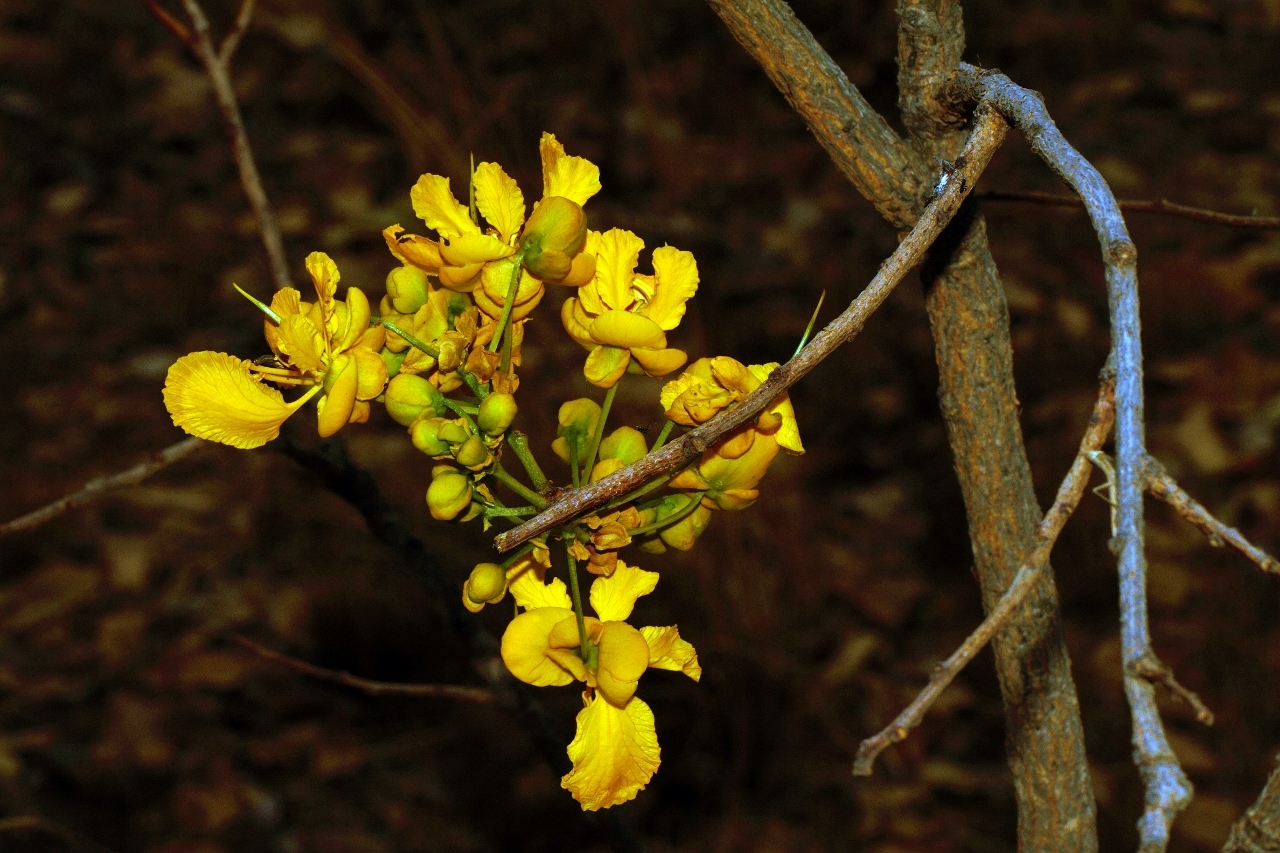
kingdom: Plantae
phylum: Tracheophyta
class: Magnoliopsida
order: Fabales
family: Fabaceae
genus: Senna
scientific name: Senna singueana
